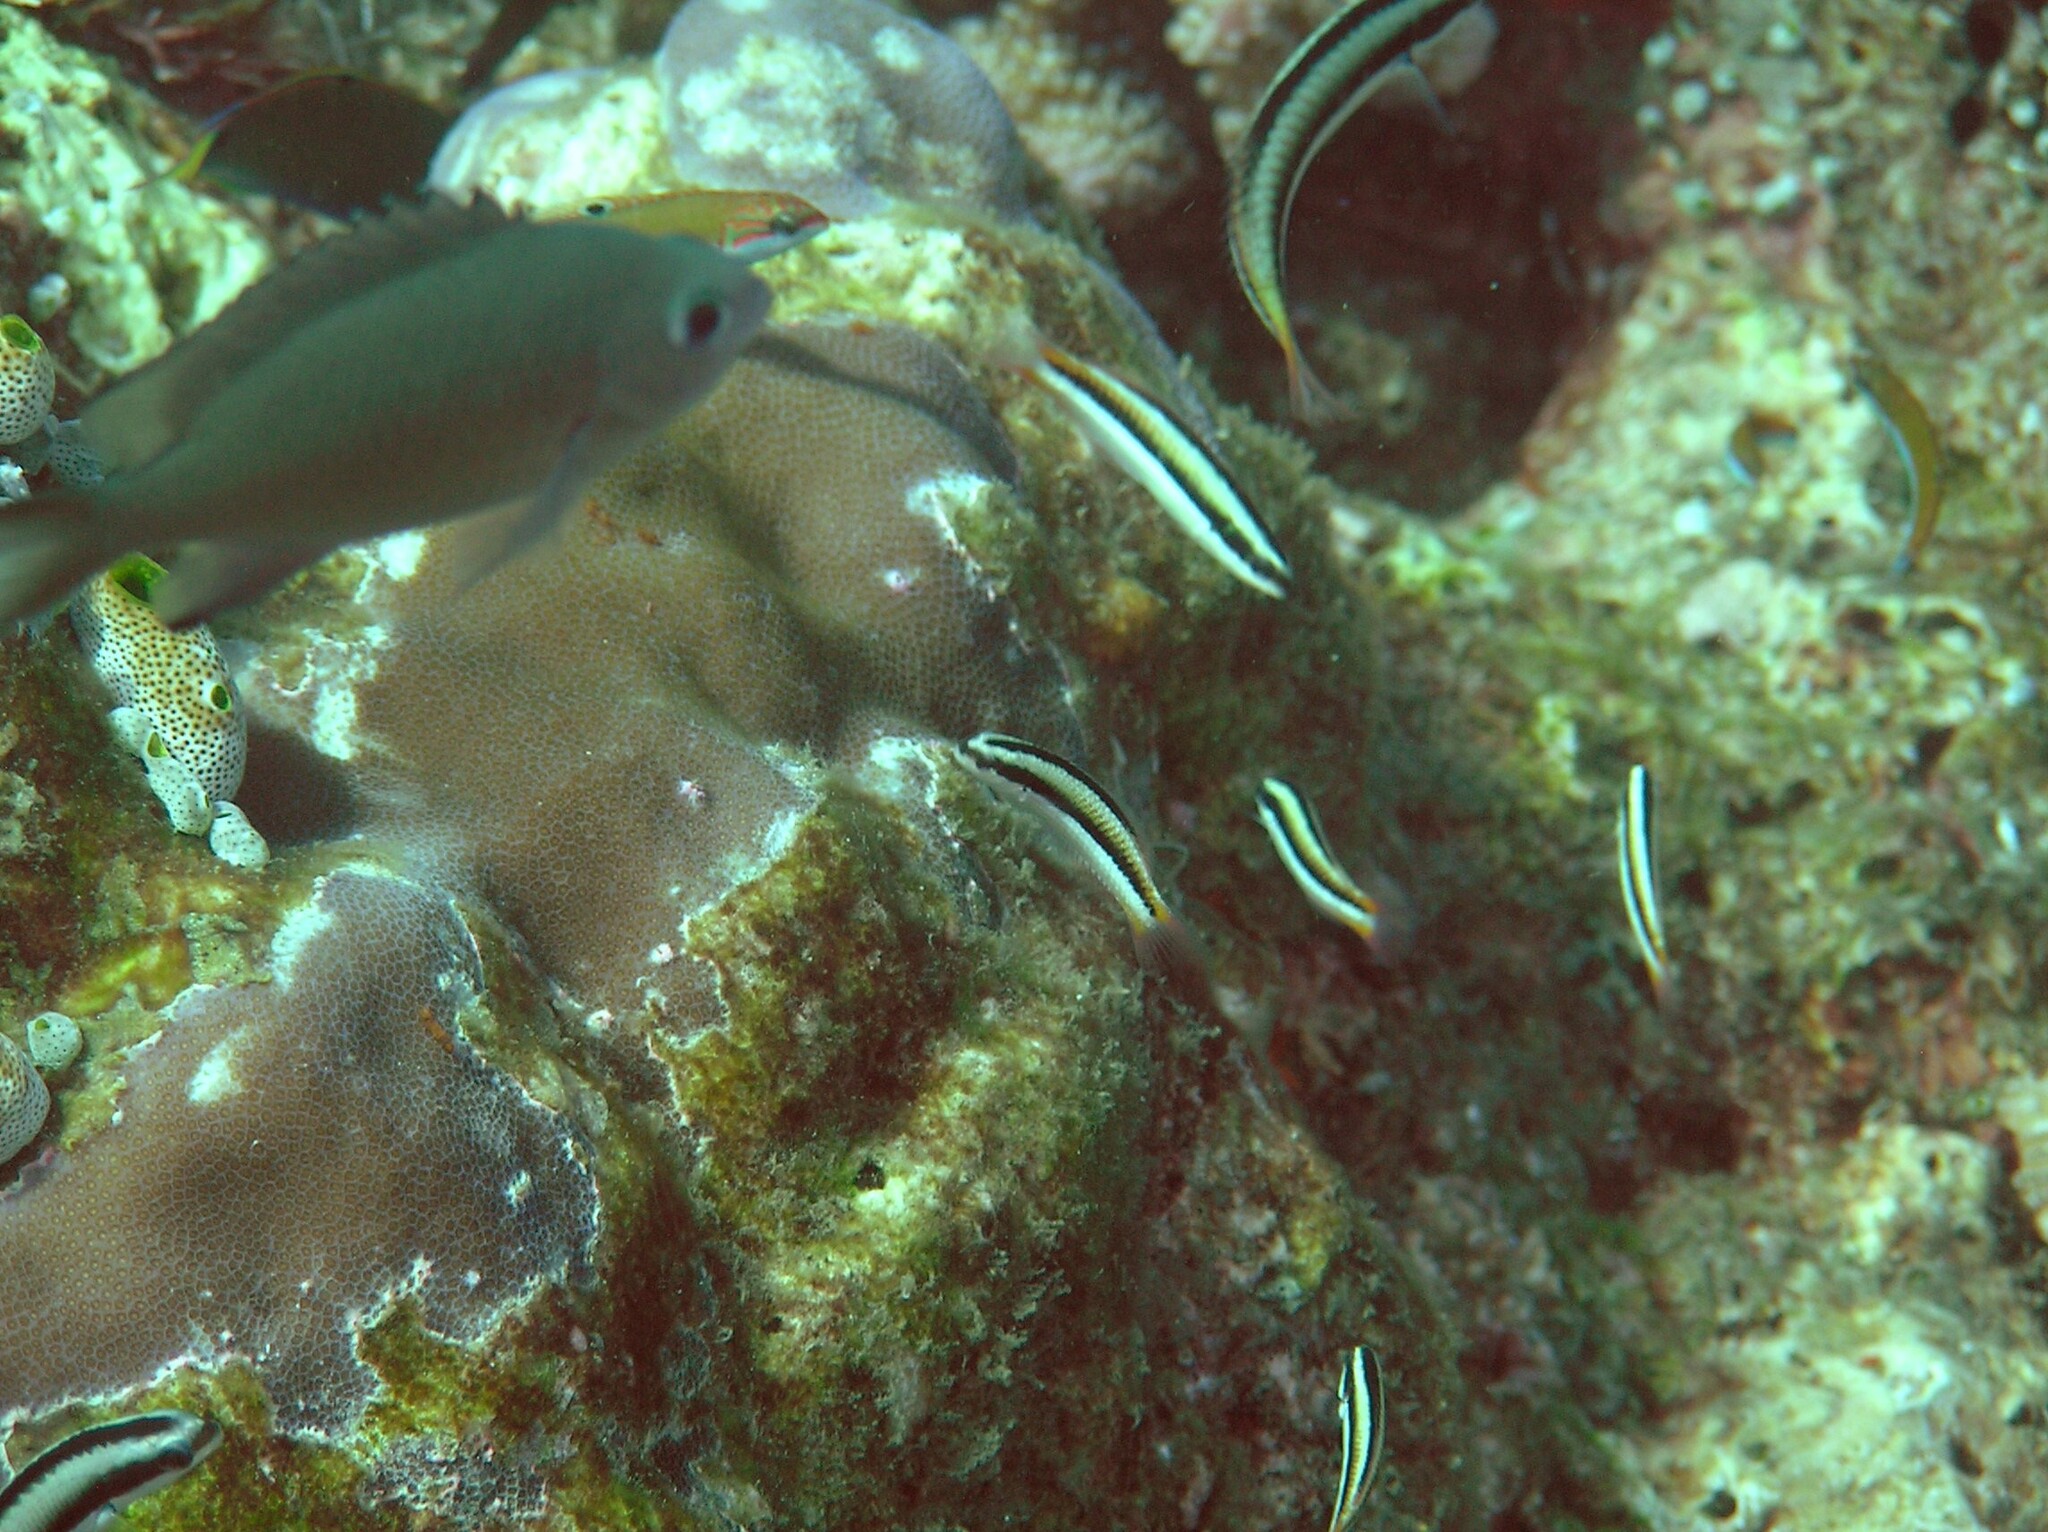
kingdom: Animalia
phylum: Chordata
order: Perciformes
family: Labridae
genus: Thalassoma
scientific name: Thalassoma amblycephalum
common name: Bluehead wrasse
